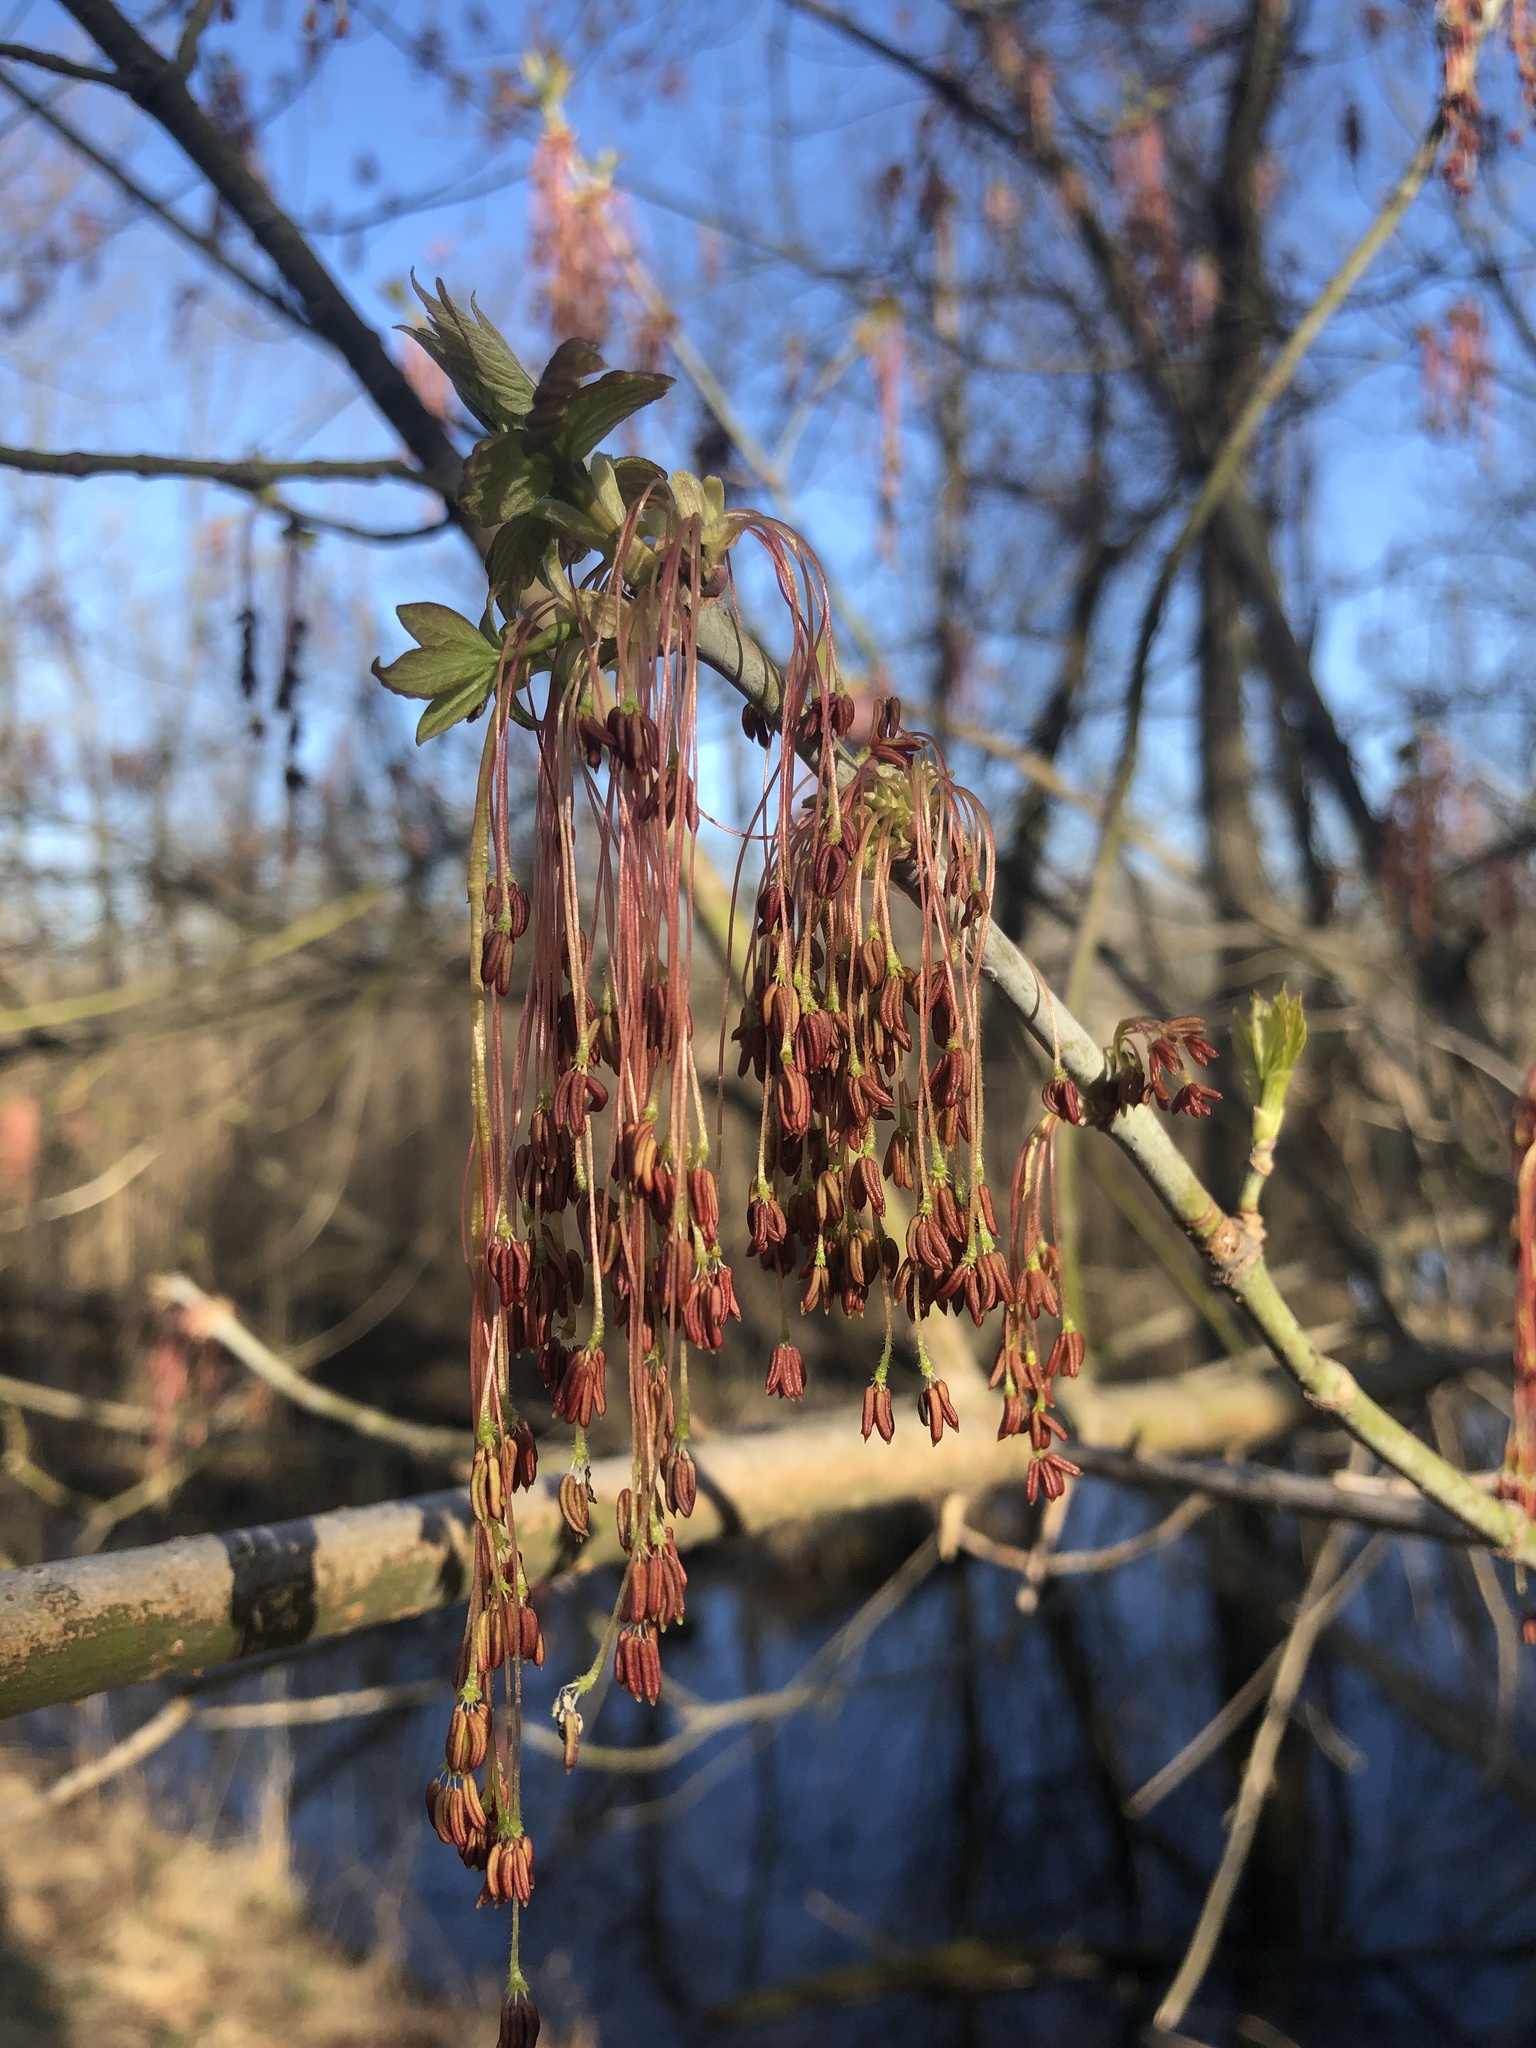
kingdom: Plantae
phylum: Tracheophyta
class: Magnoliopsida
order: Sapindales
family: Sapindaceae
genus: Acer
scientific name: Acer negundo
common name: Ashleaf maple
